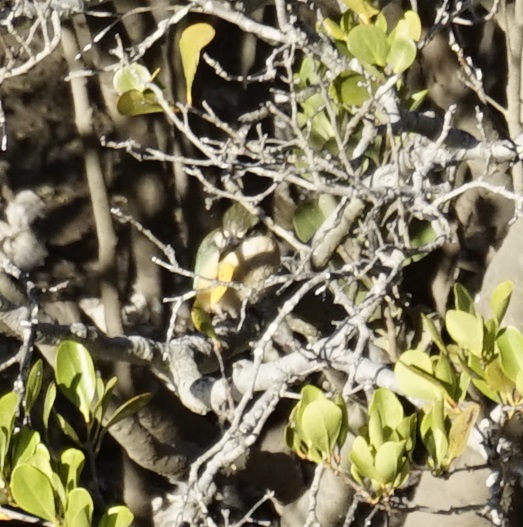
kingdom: Animalia
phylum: Chordata
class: Aves
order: Coraciiformes
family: Alcedinidae
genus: Todiramphus
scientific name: Todiramphus sanctus
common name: Sacred kingfisher
